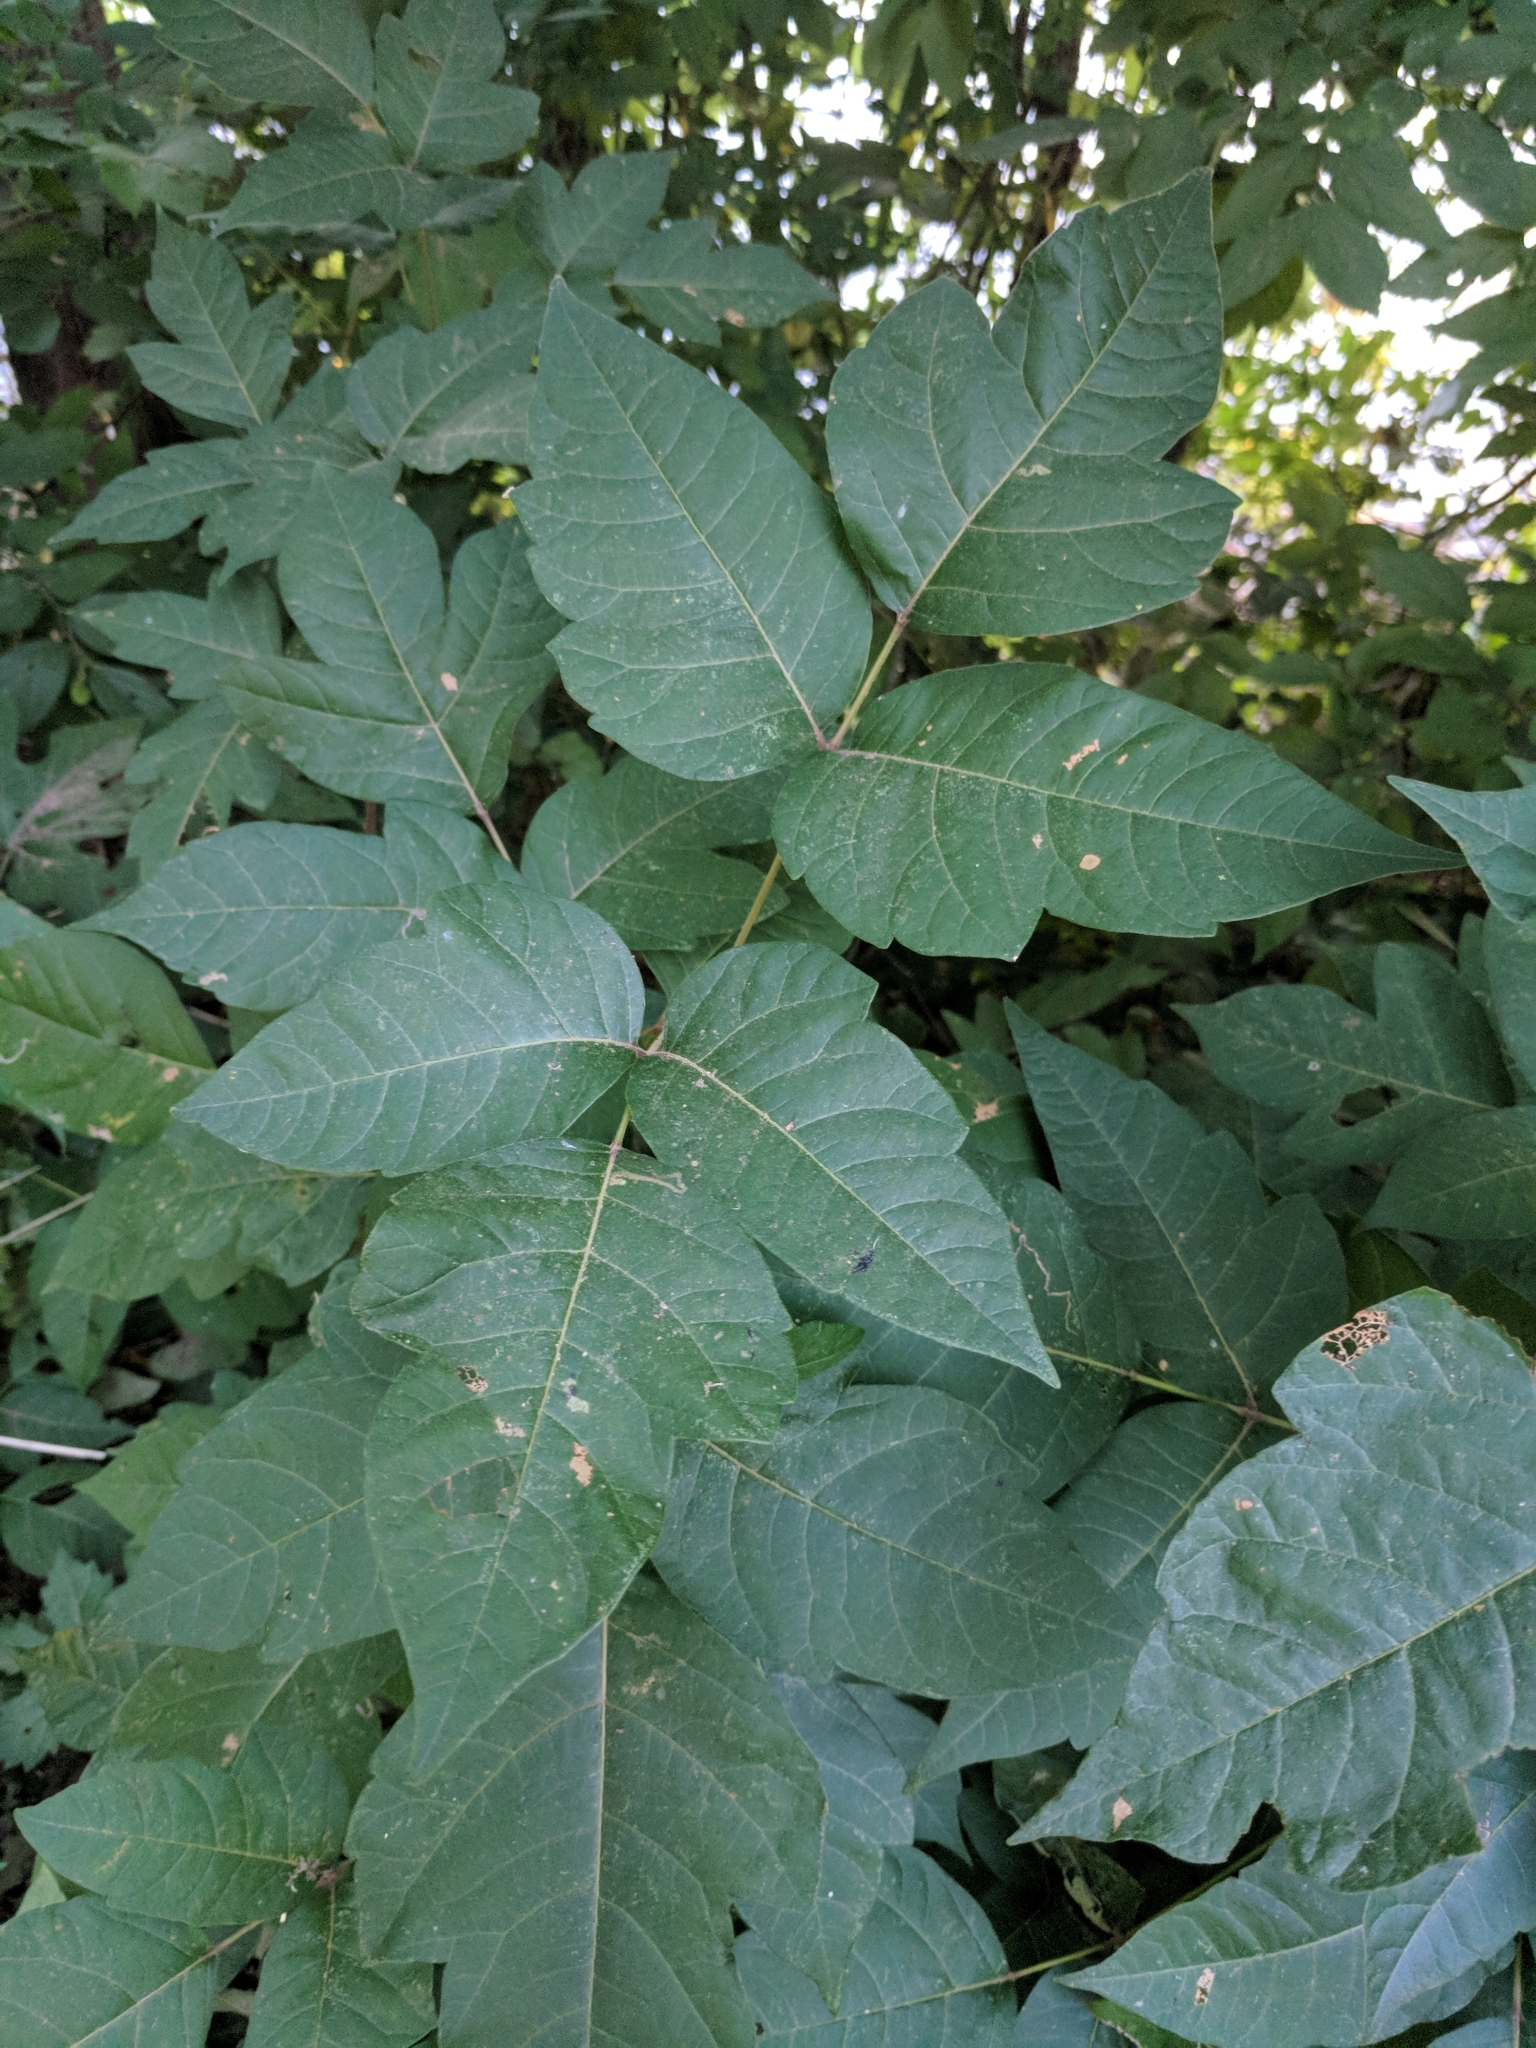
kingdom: Plantae
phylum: Tracheophyta
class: Magnoliopsida
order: Sapindales
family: Anacardiaceae
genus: Toxicodendron
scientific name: Toxicodendron radicans
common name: Poison ivy
